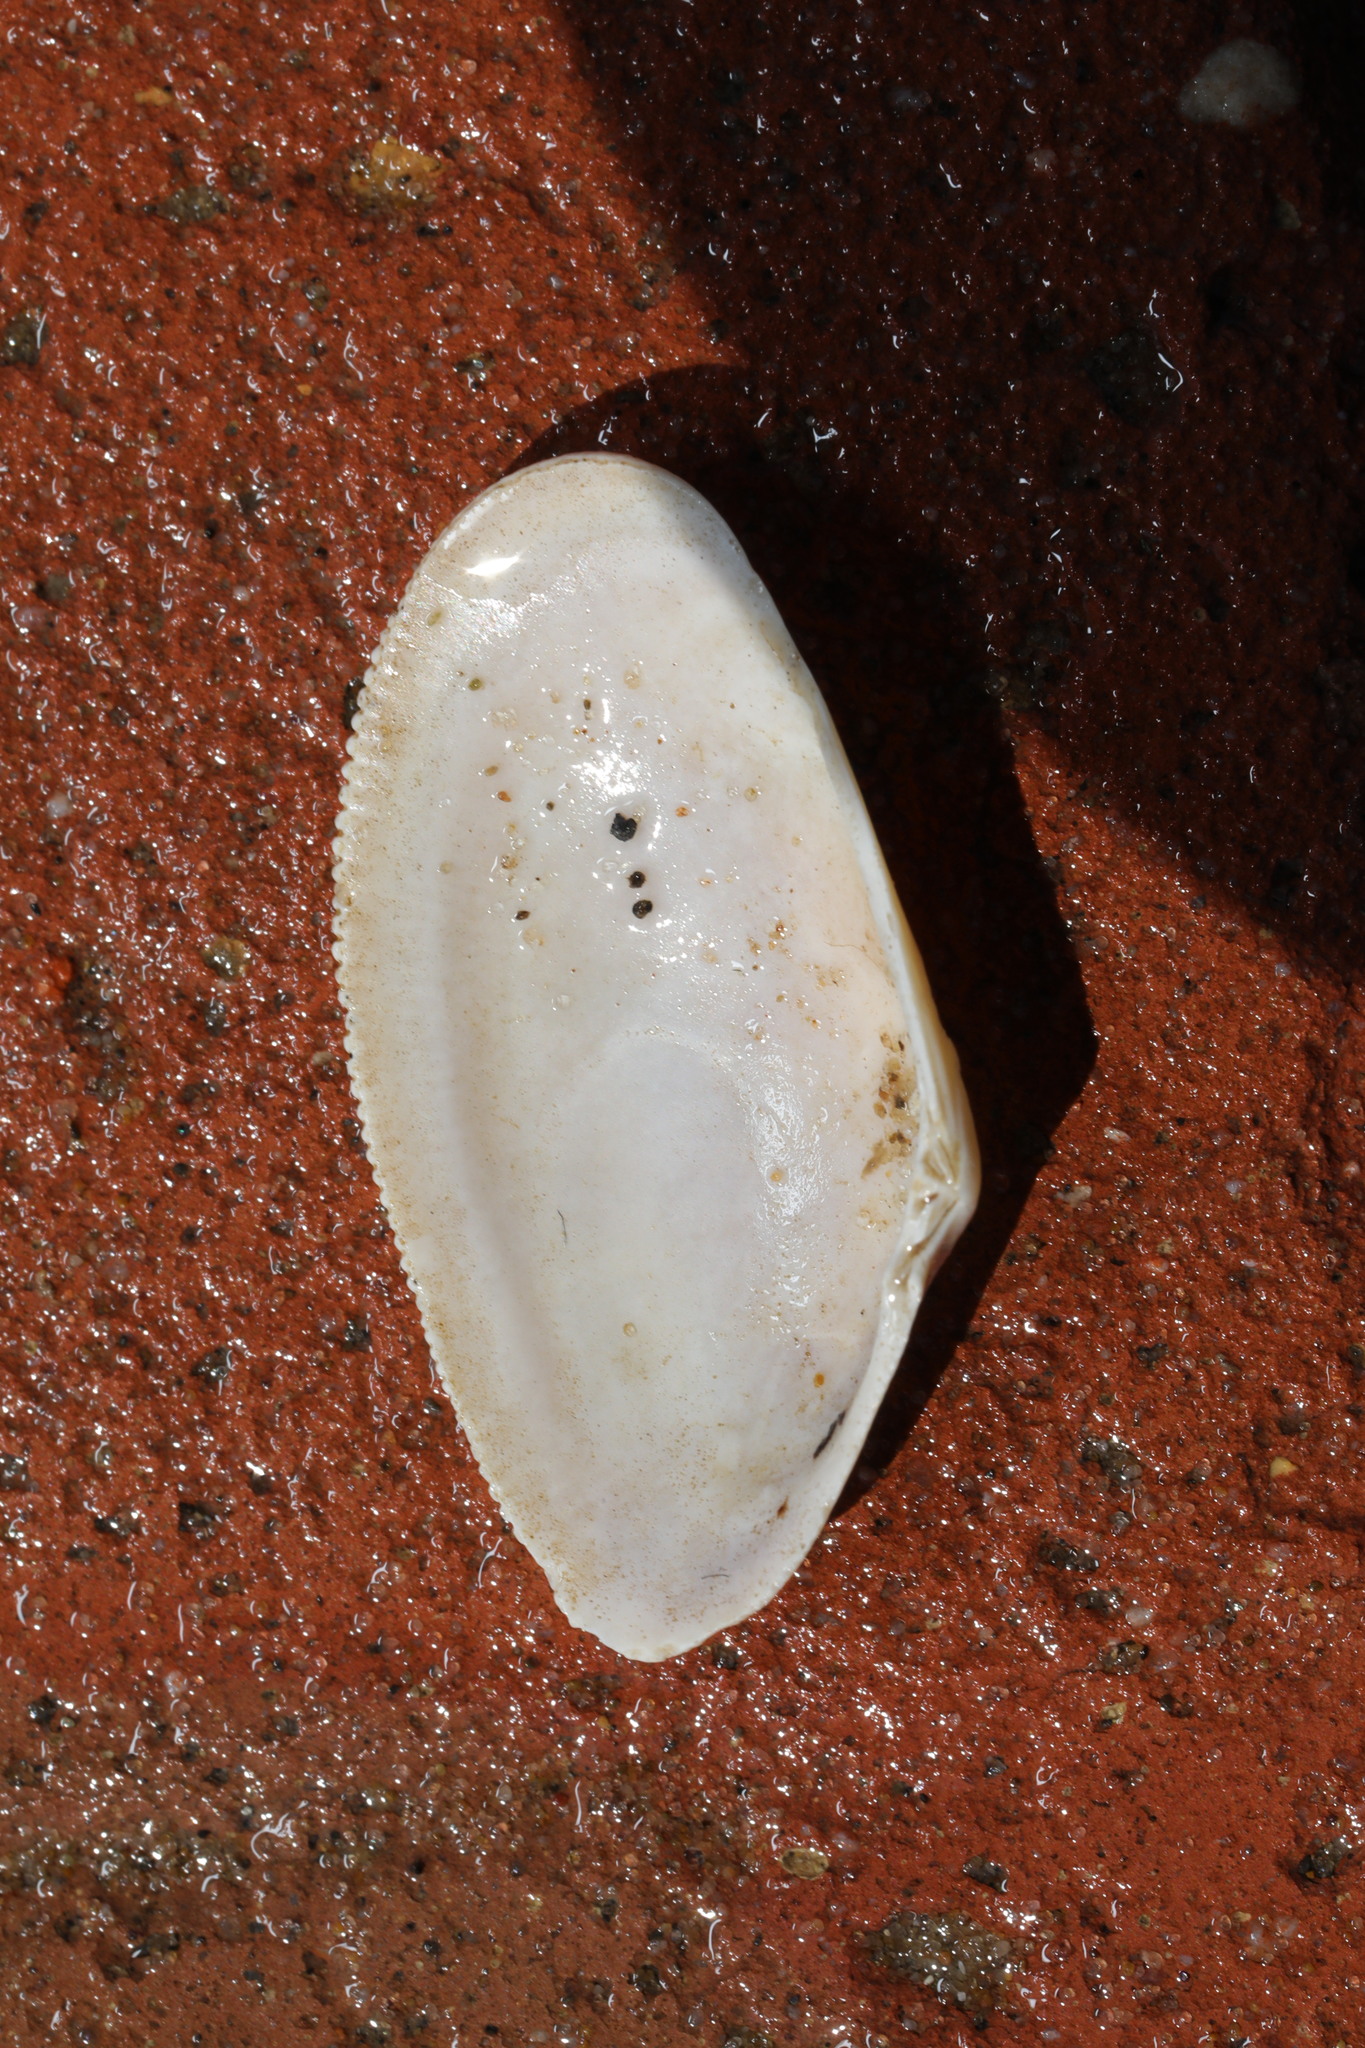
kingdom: Animalia
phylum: Mollusca
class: Bivalvia
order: Cardiida
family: Donacidae
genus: Donax
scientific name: Donax vittatus
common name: Banded wedge-shell
